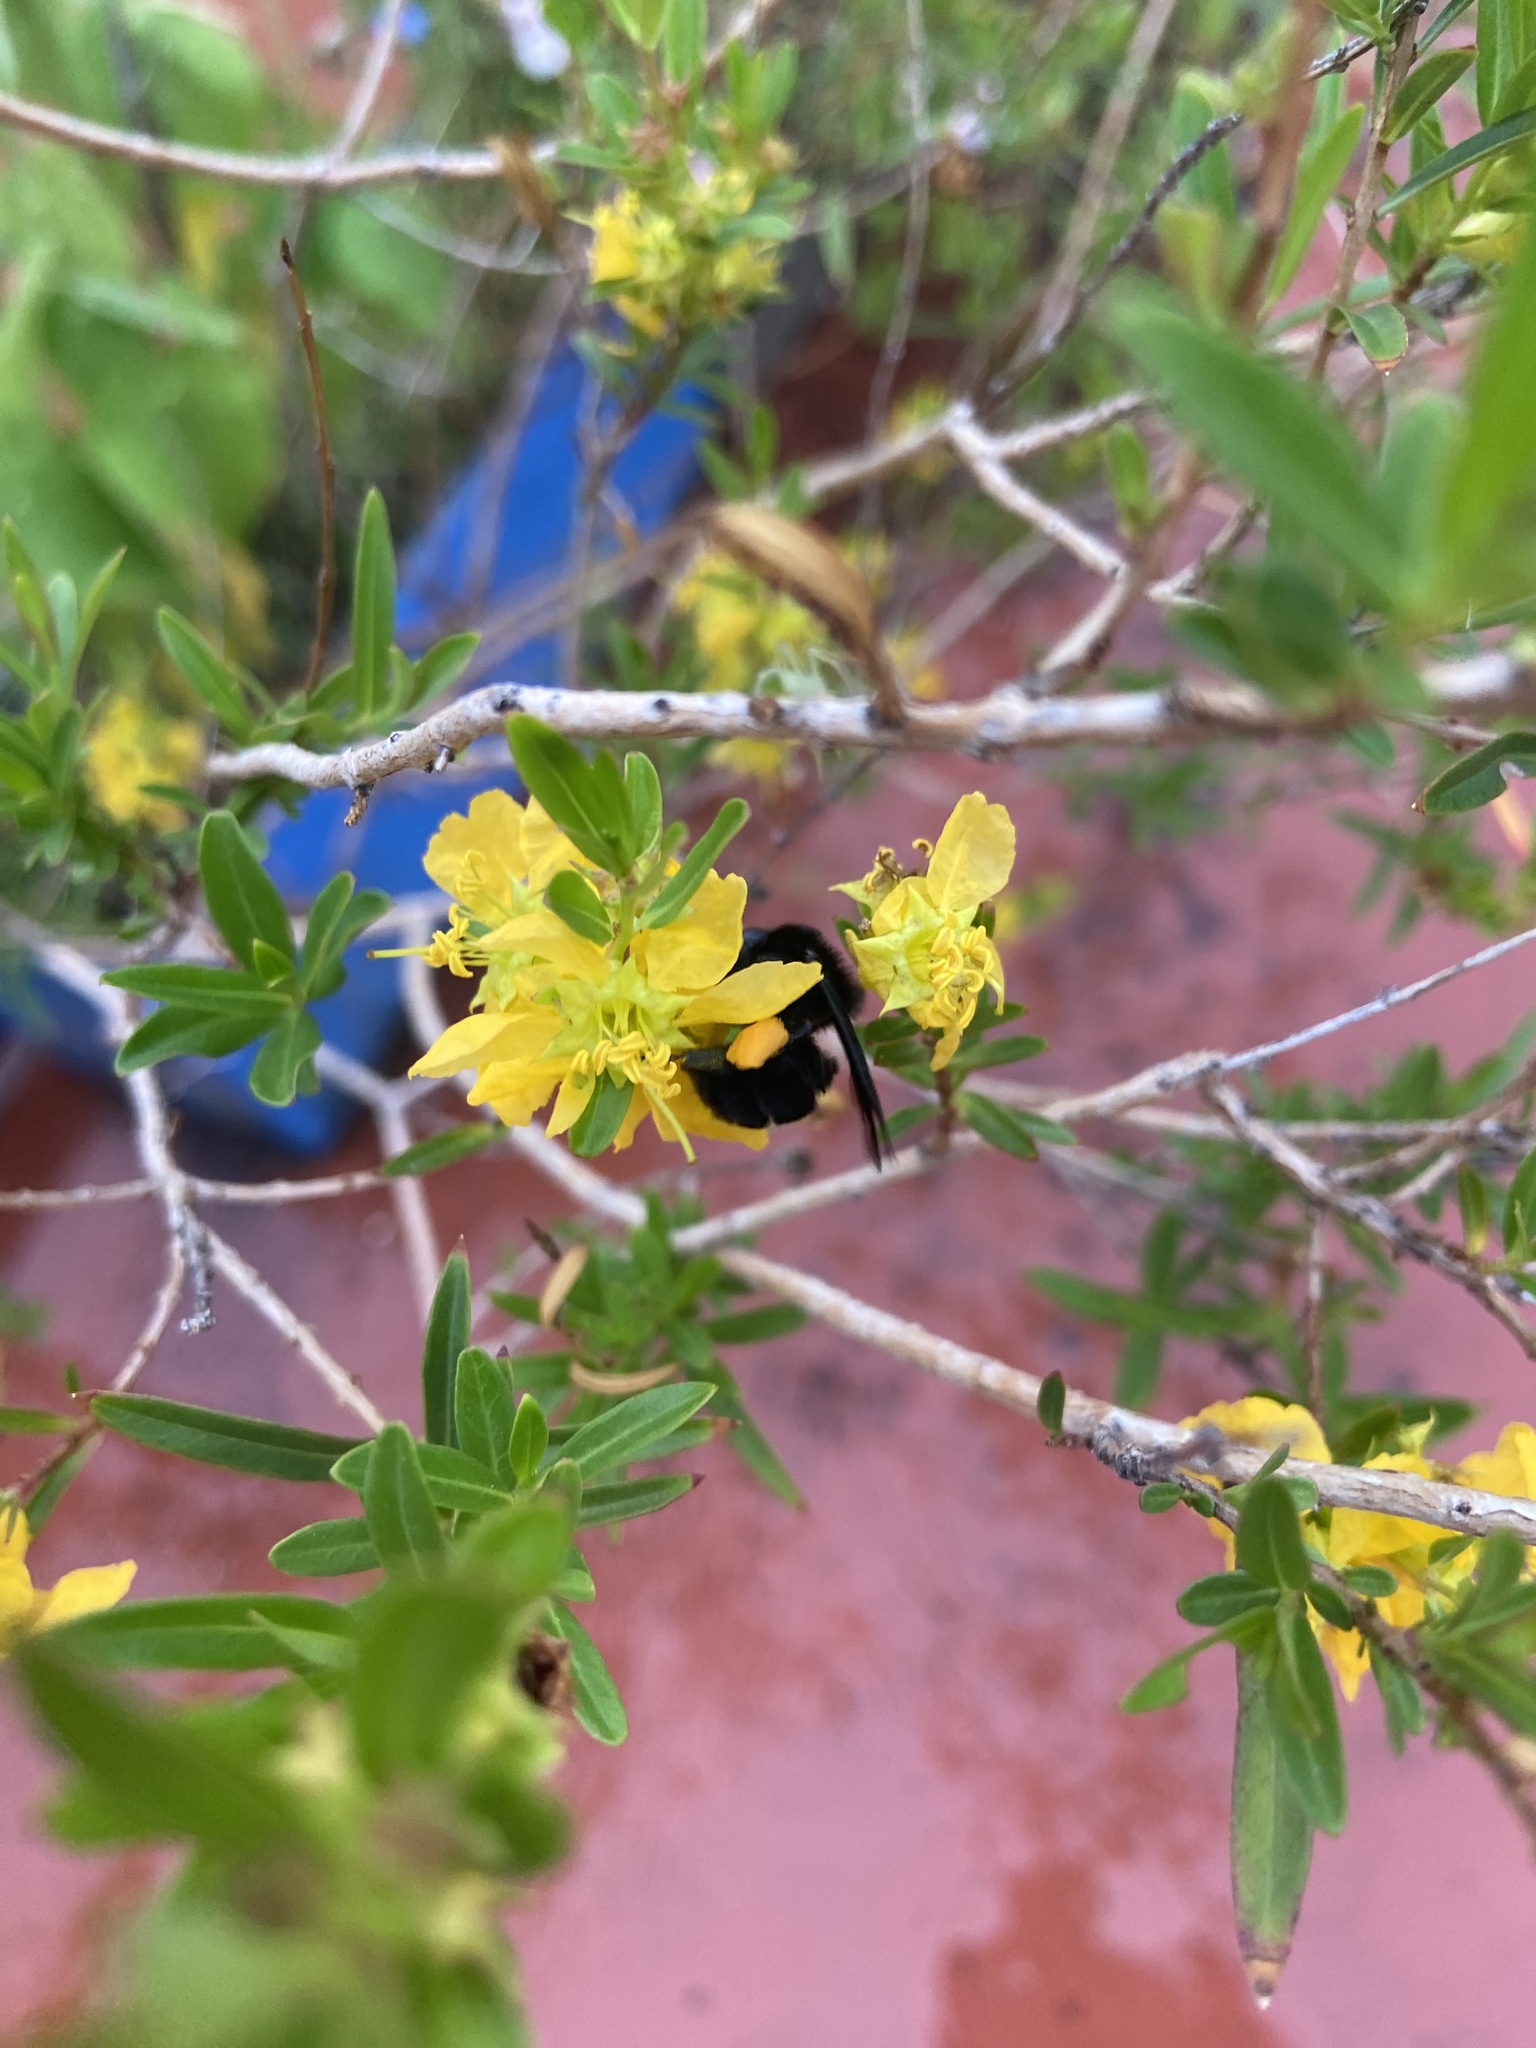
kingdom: Animalia
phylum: Arthropoda
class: Insecta
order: Hymenoptera
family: Apidae
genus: Bombus
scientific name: Bombus pauloensis
